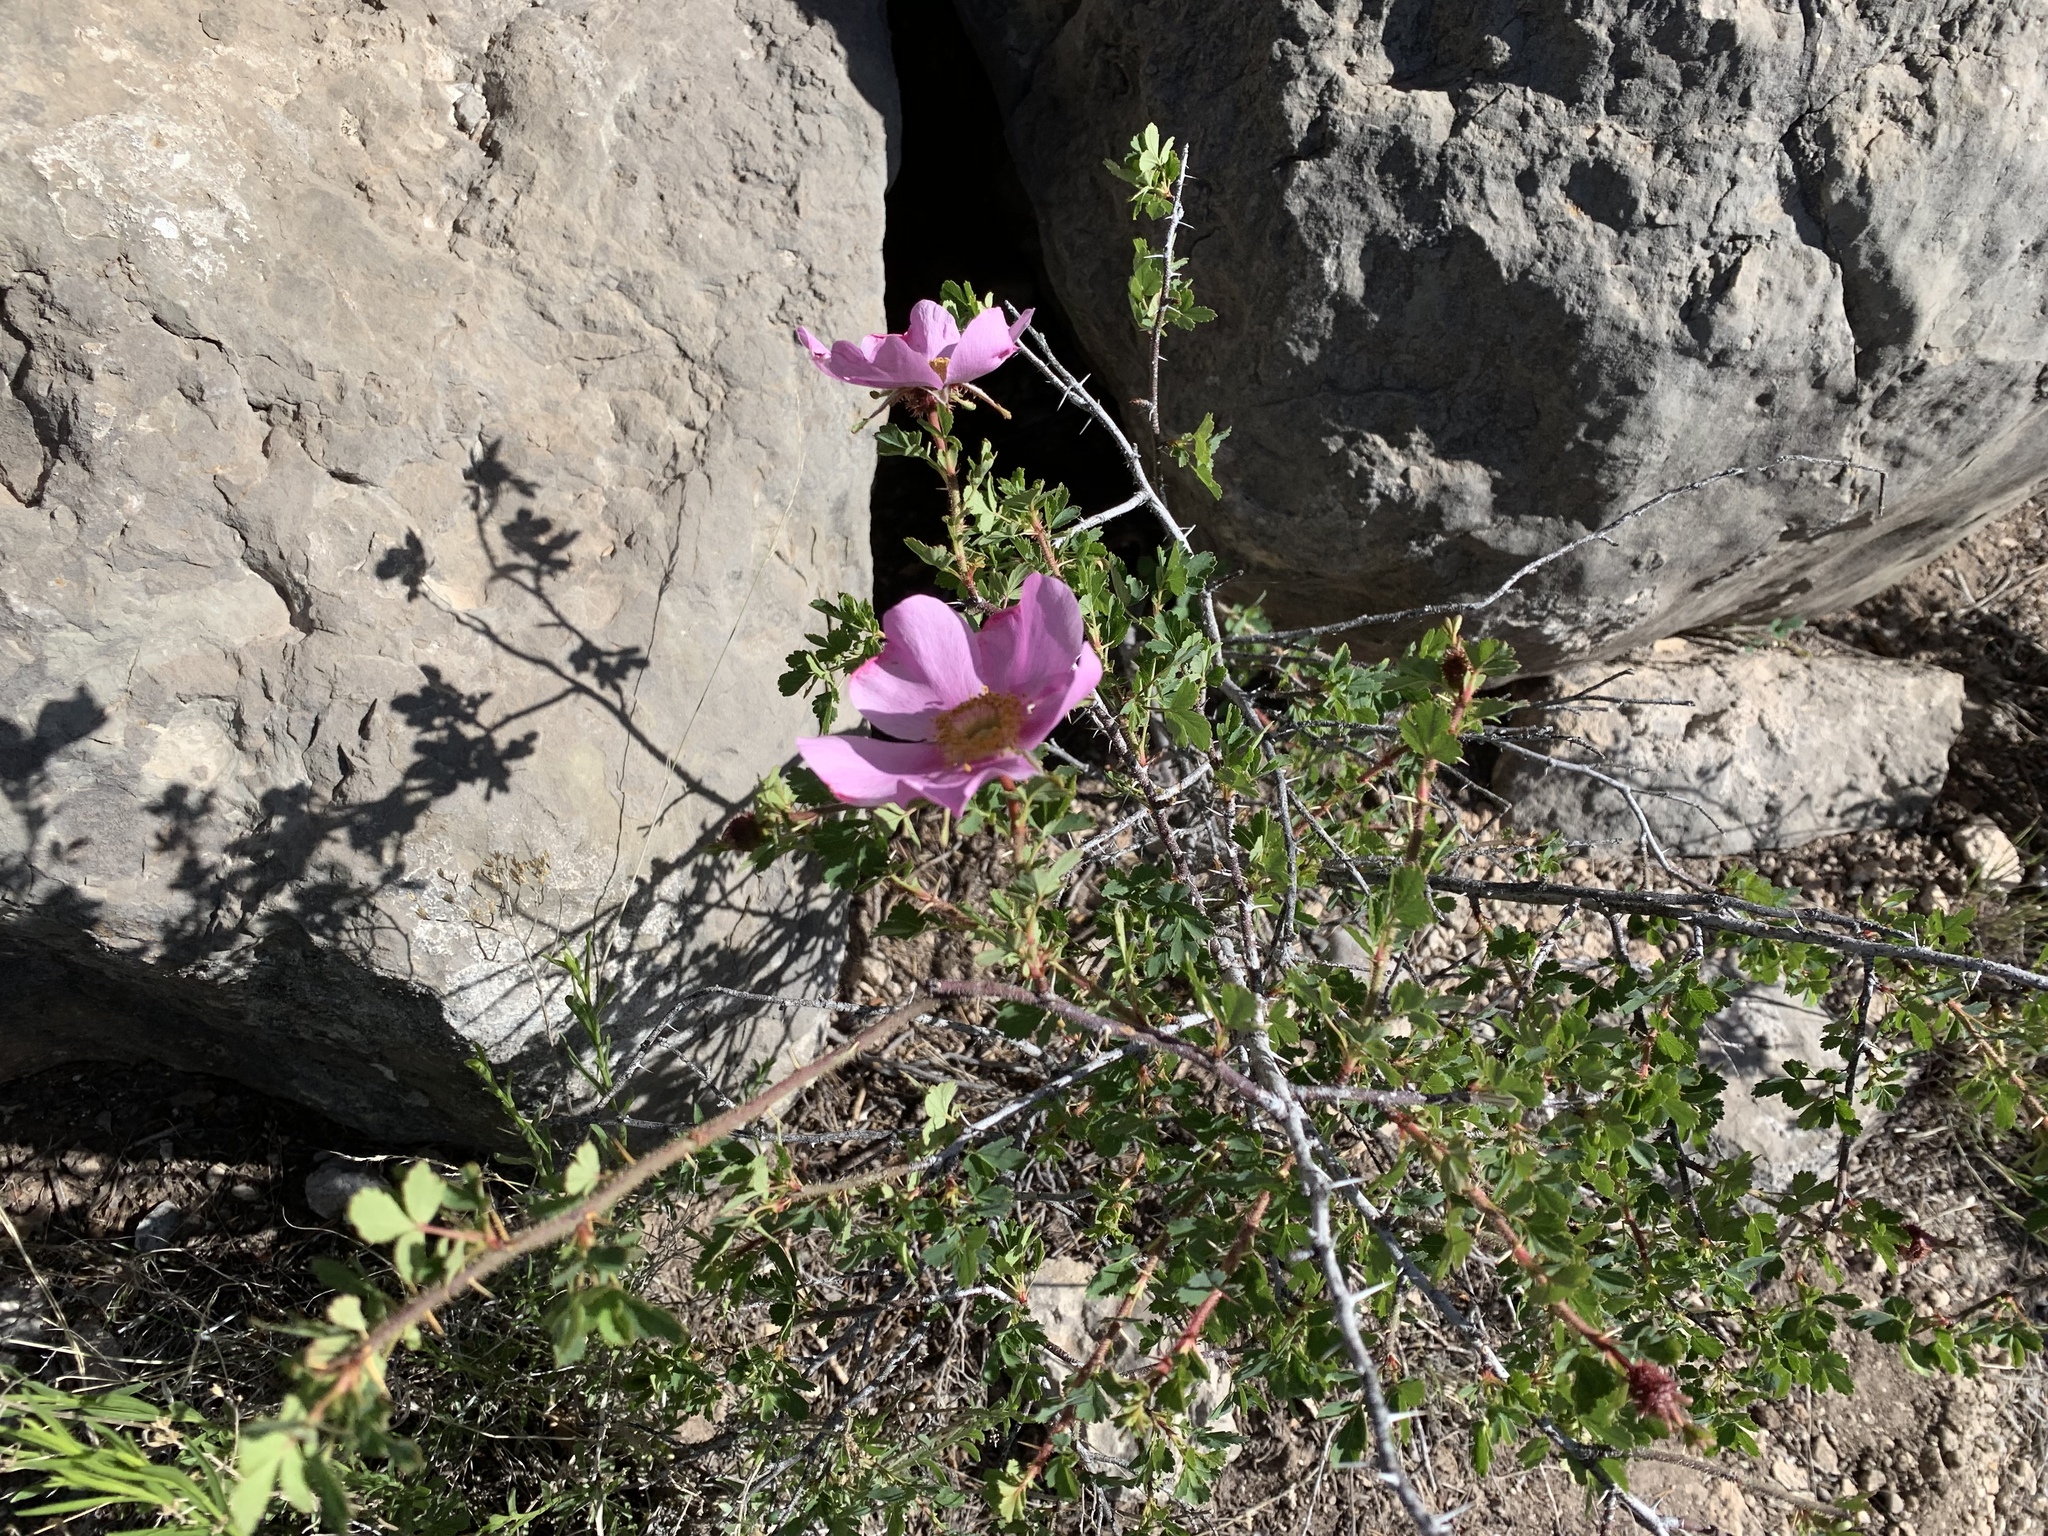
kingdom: Plantae
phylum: Tracheophyta
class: Magnoliopsida
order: Rosales
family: Rosaceae
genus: Rosa
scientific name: Rosa stellata
